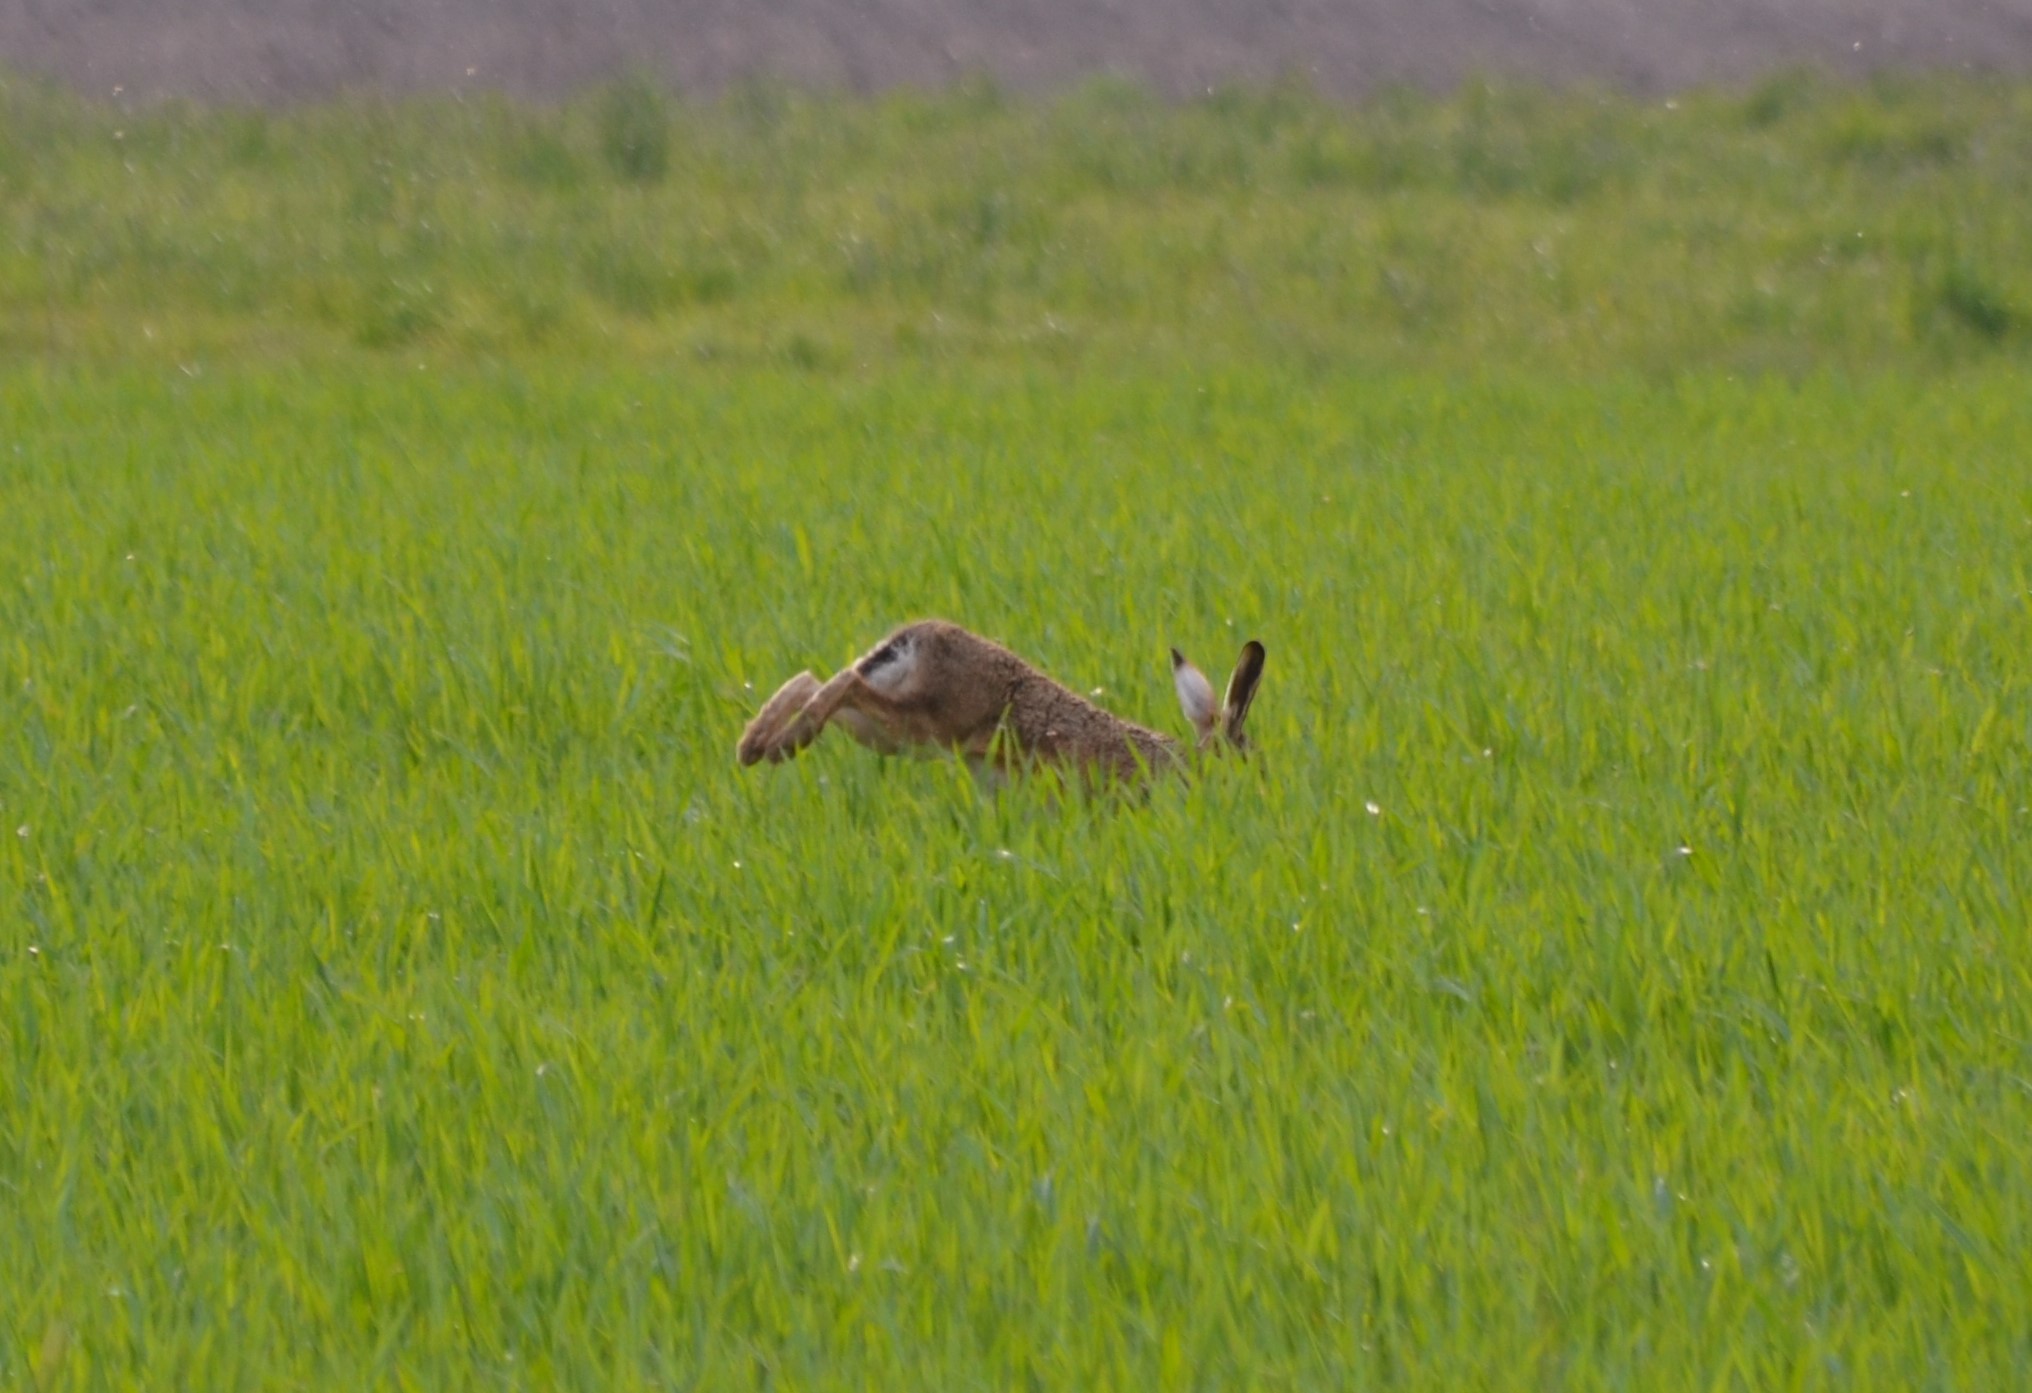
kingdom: Animalia
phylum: Chordata
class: Mammalia
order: Lagomorpha
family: Leporidae
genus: Lepus
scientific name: Lepus europaeus
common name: European hare
